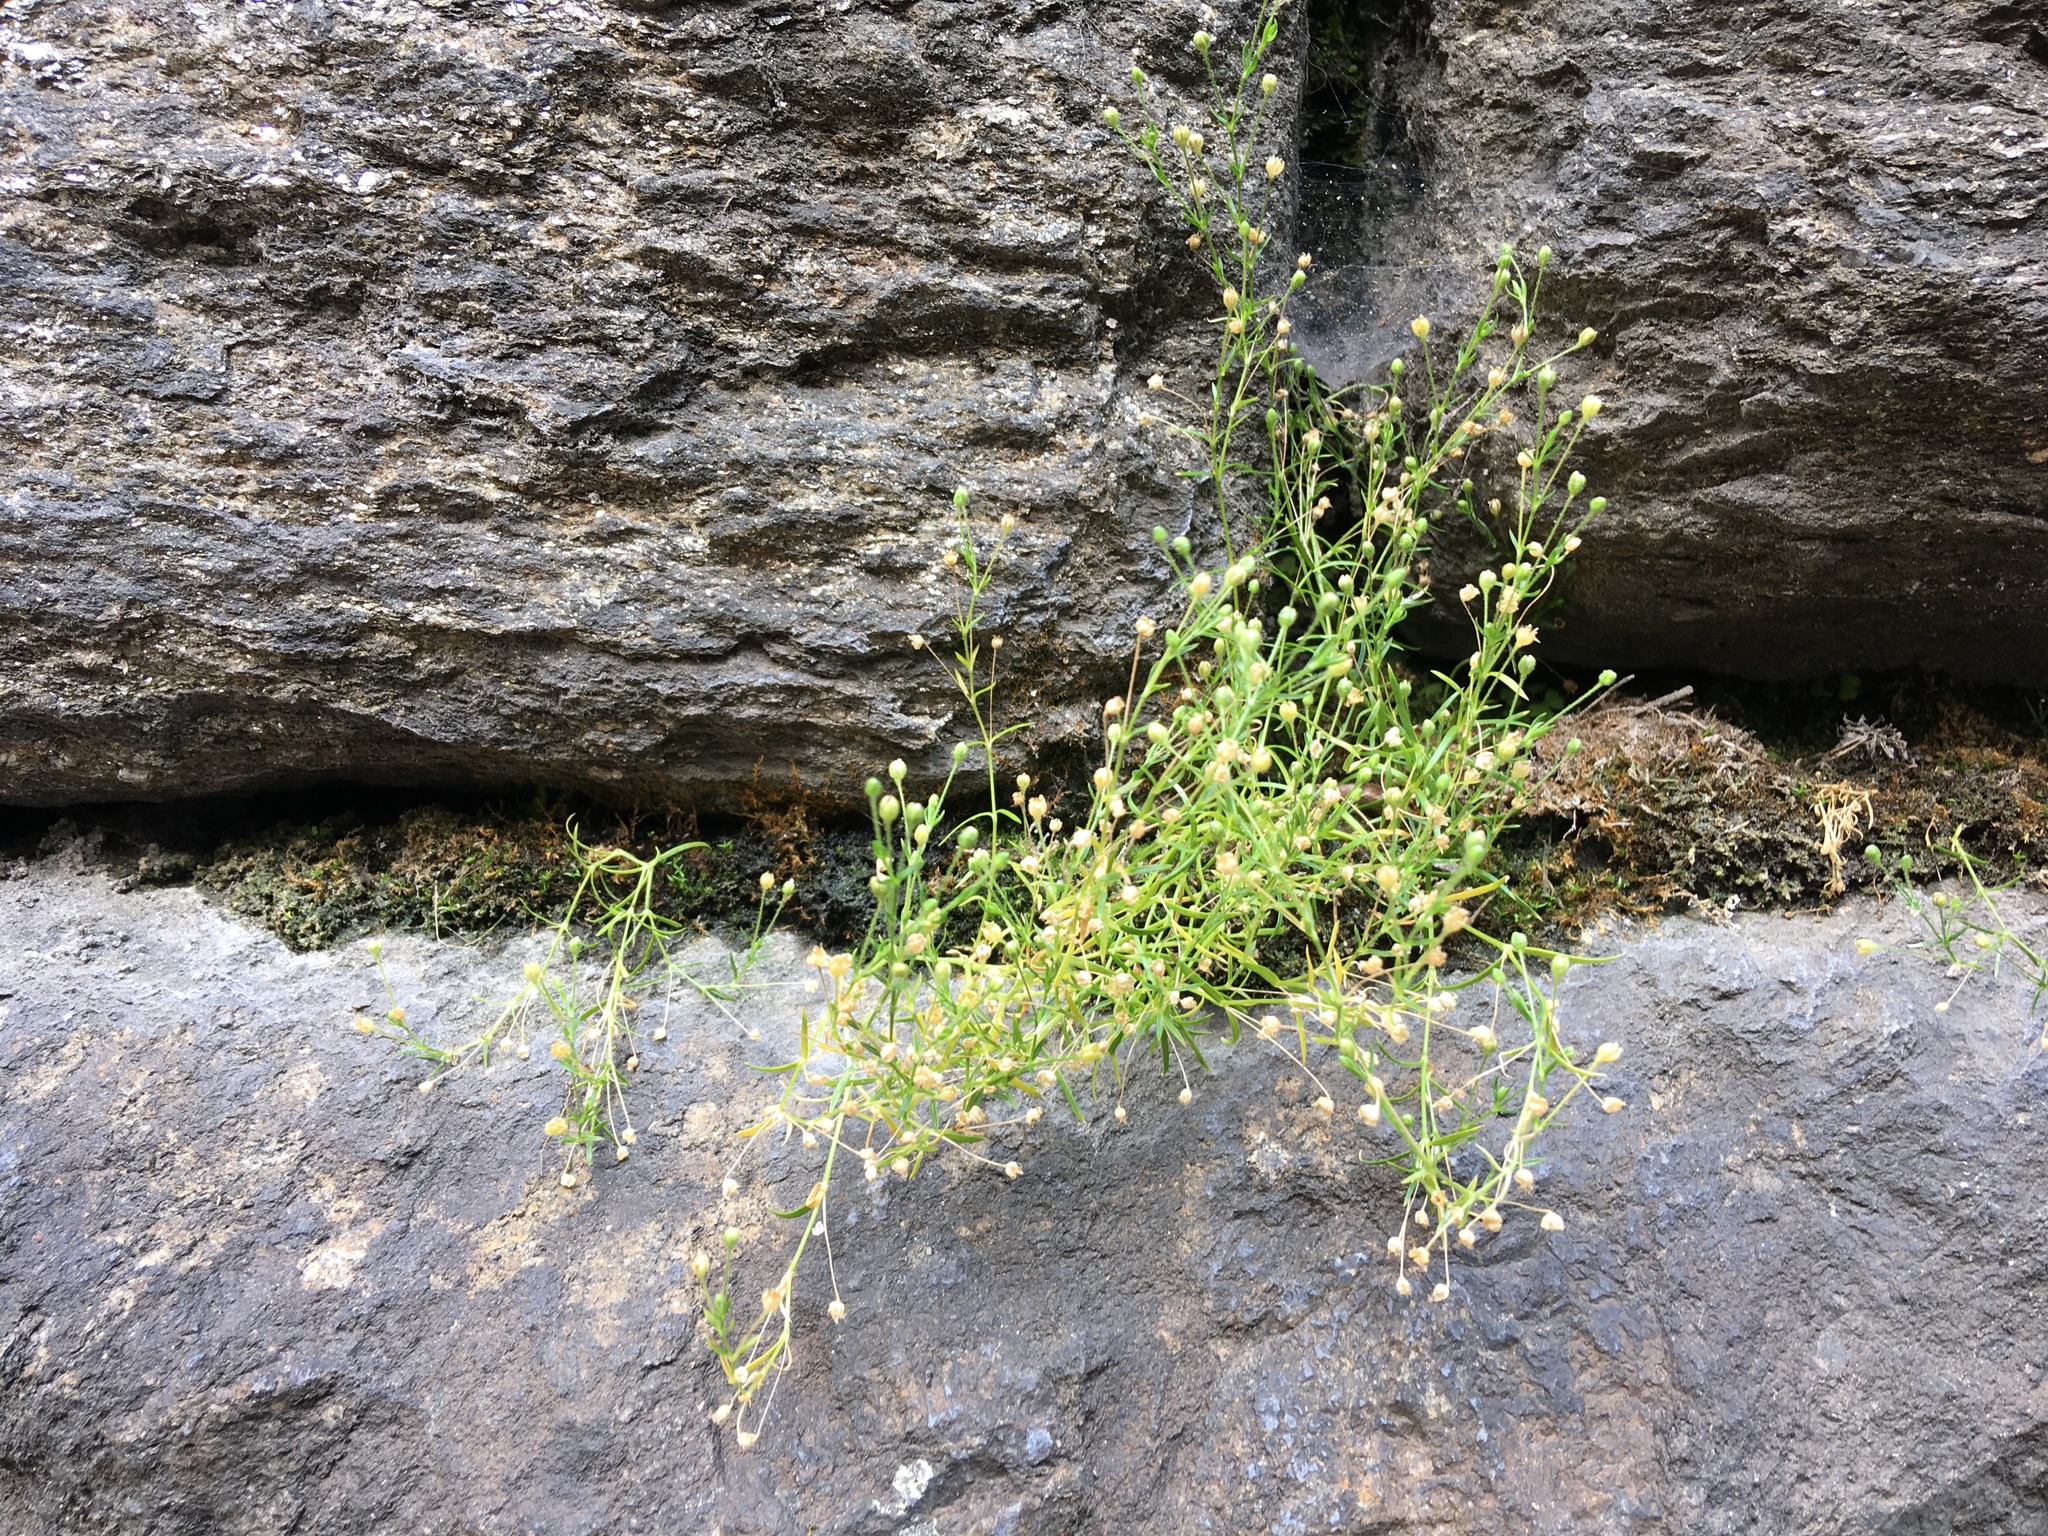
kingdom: Plantae
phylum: Tracheophyta
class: Magnoliopsida
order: Caryophyllales
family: Caryophyllaceae
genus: Sagina
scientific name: Sagina japonica
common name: Japanese pearlwort
